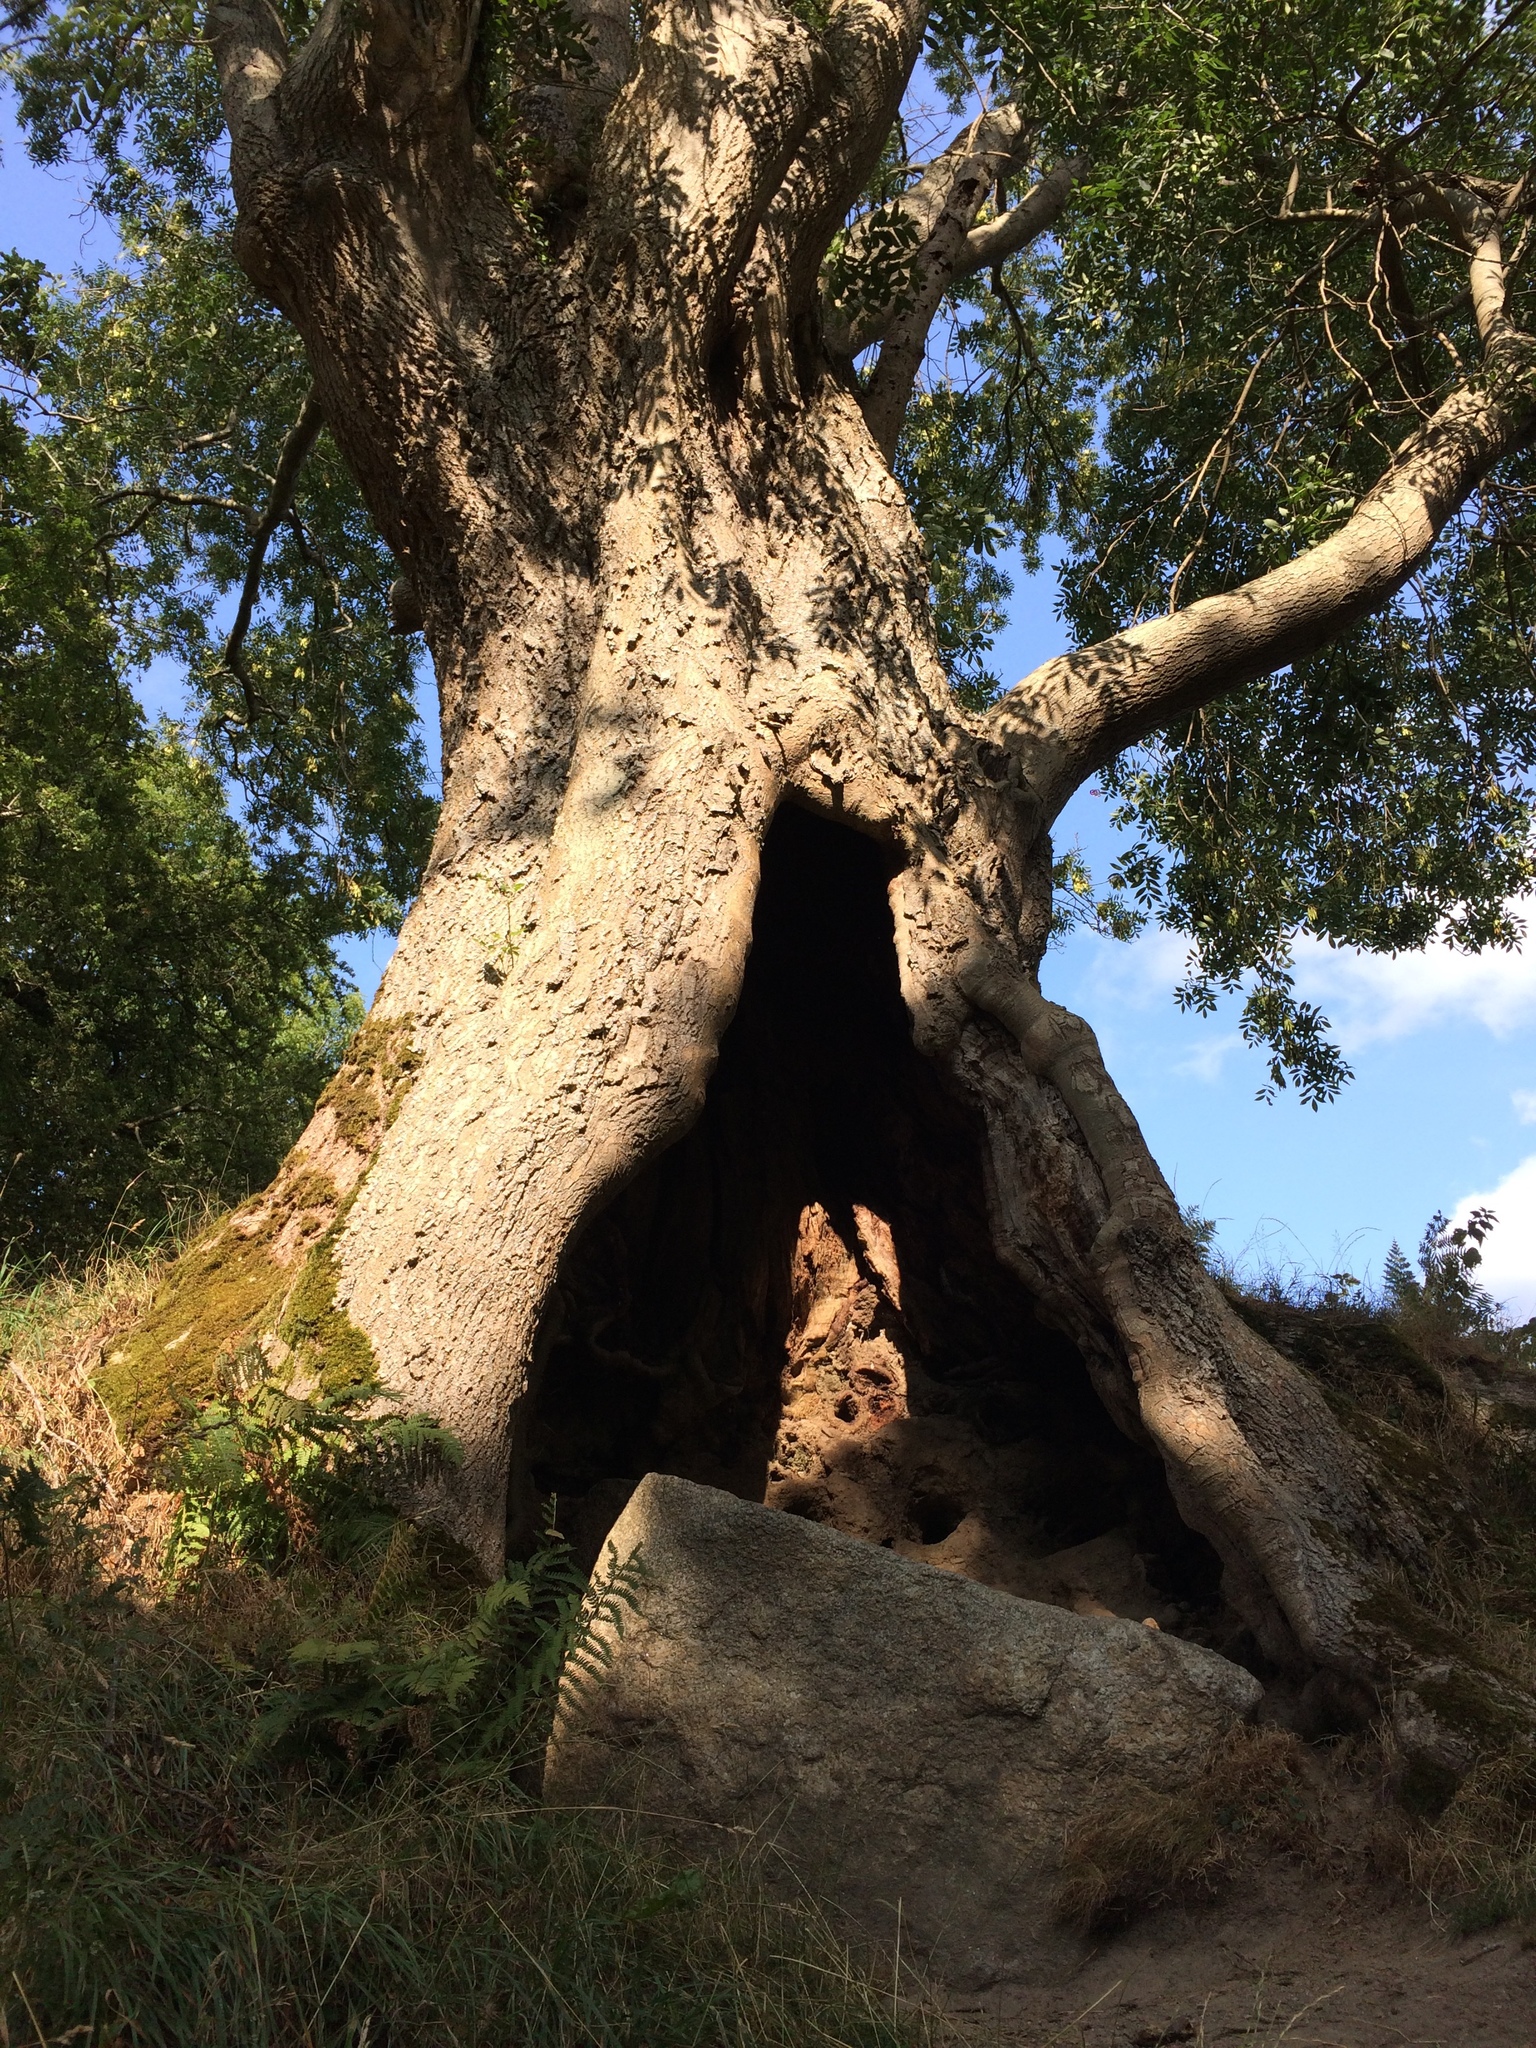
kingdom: Plantae
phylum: Tracheophyta
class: Magnoliopsida
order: Lamiales
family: Oleaceae
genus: Fraxinus
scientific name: Fraxinus excelsior
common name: European ash
